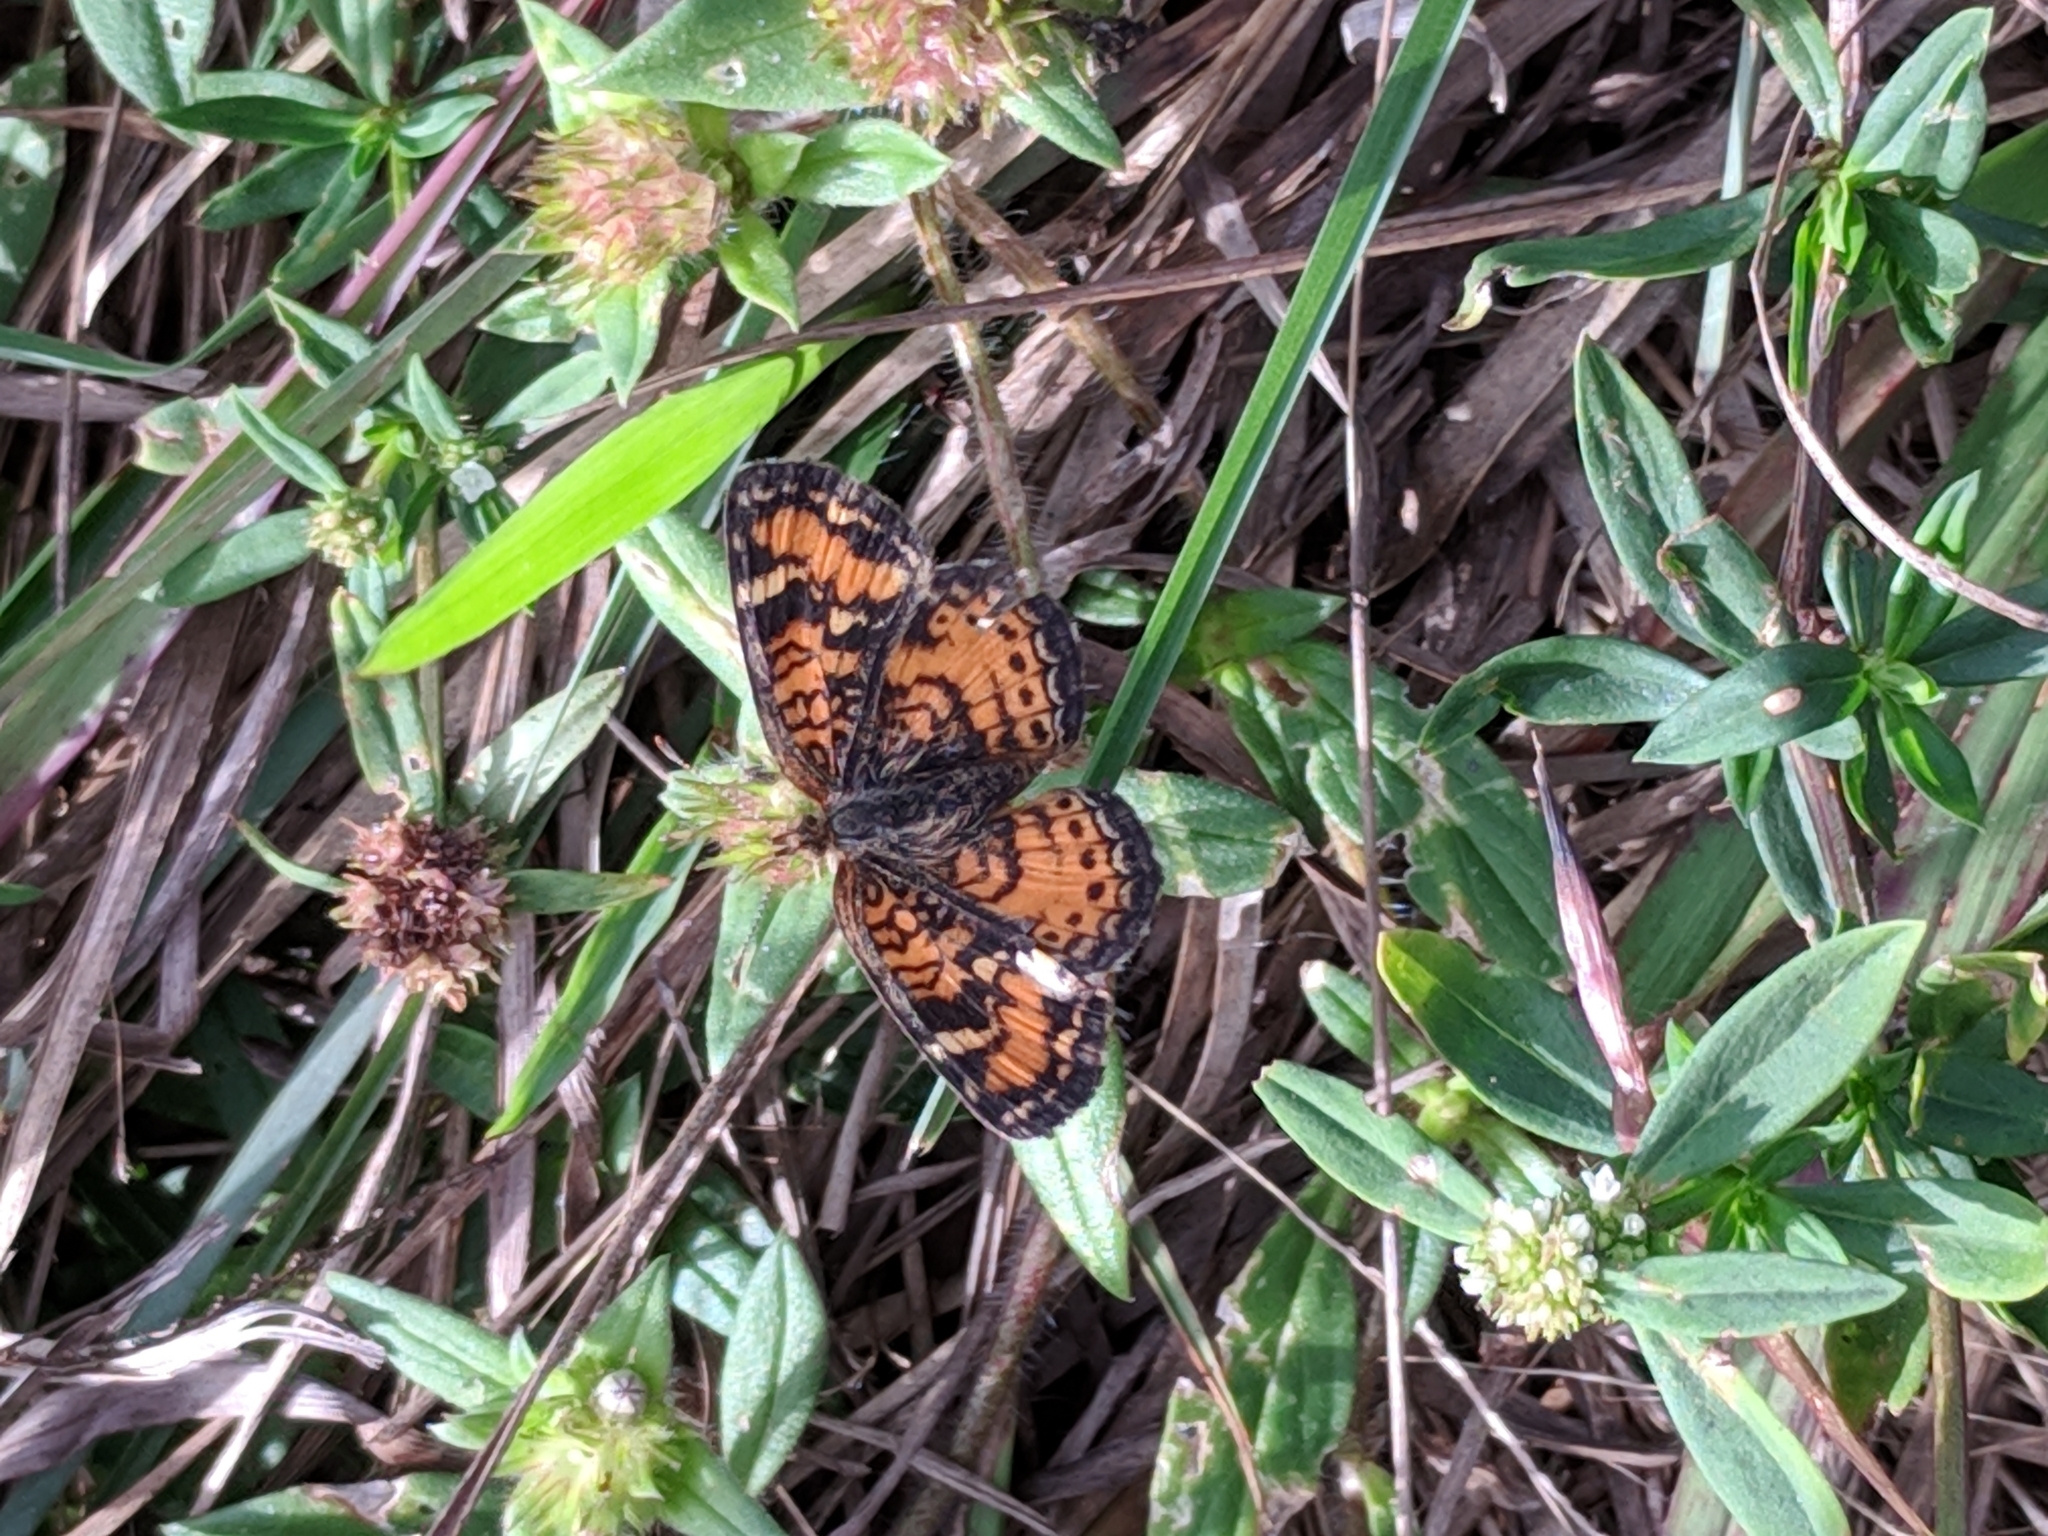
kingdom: Animalia
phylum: Arthropoda
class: Insecta
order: Lepidoptera
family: Nymphalidae
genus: Phyciodes
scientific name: Phyciodes phaon
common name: Phaon crescent
